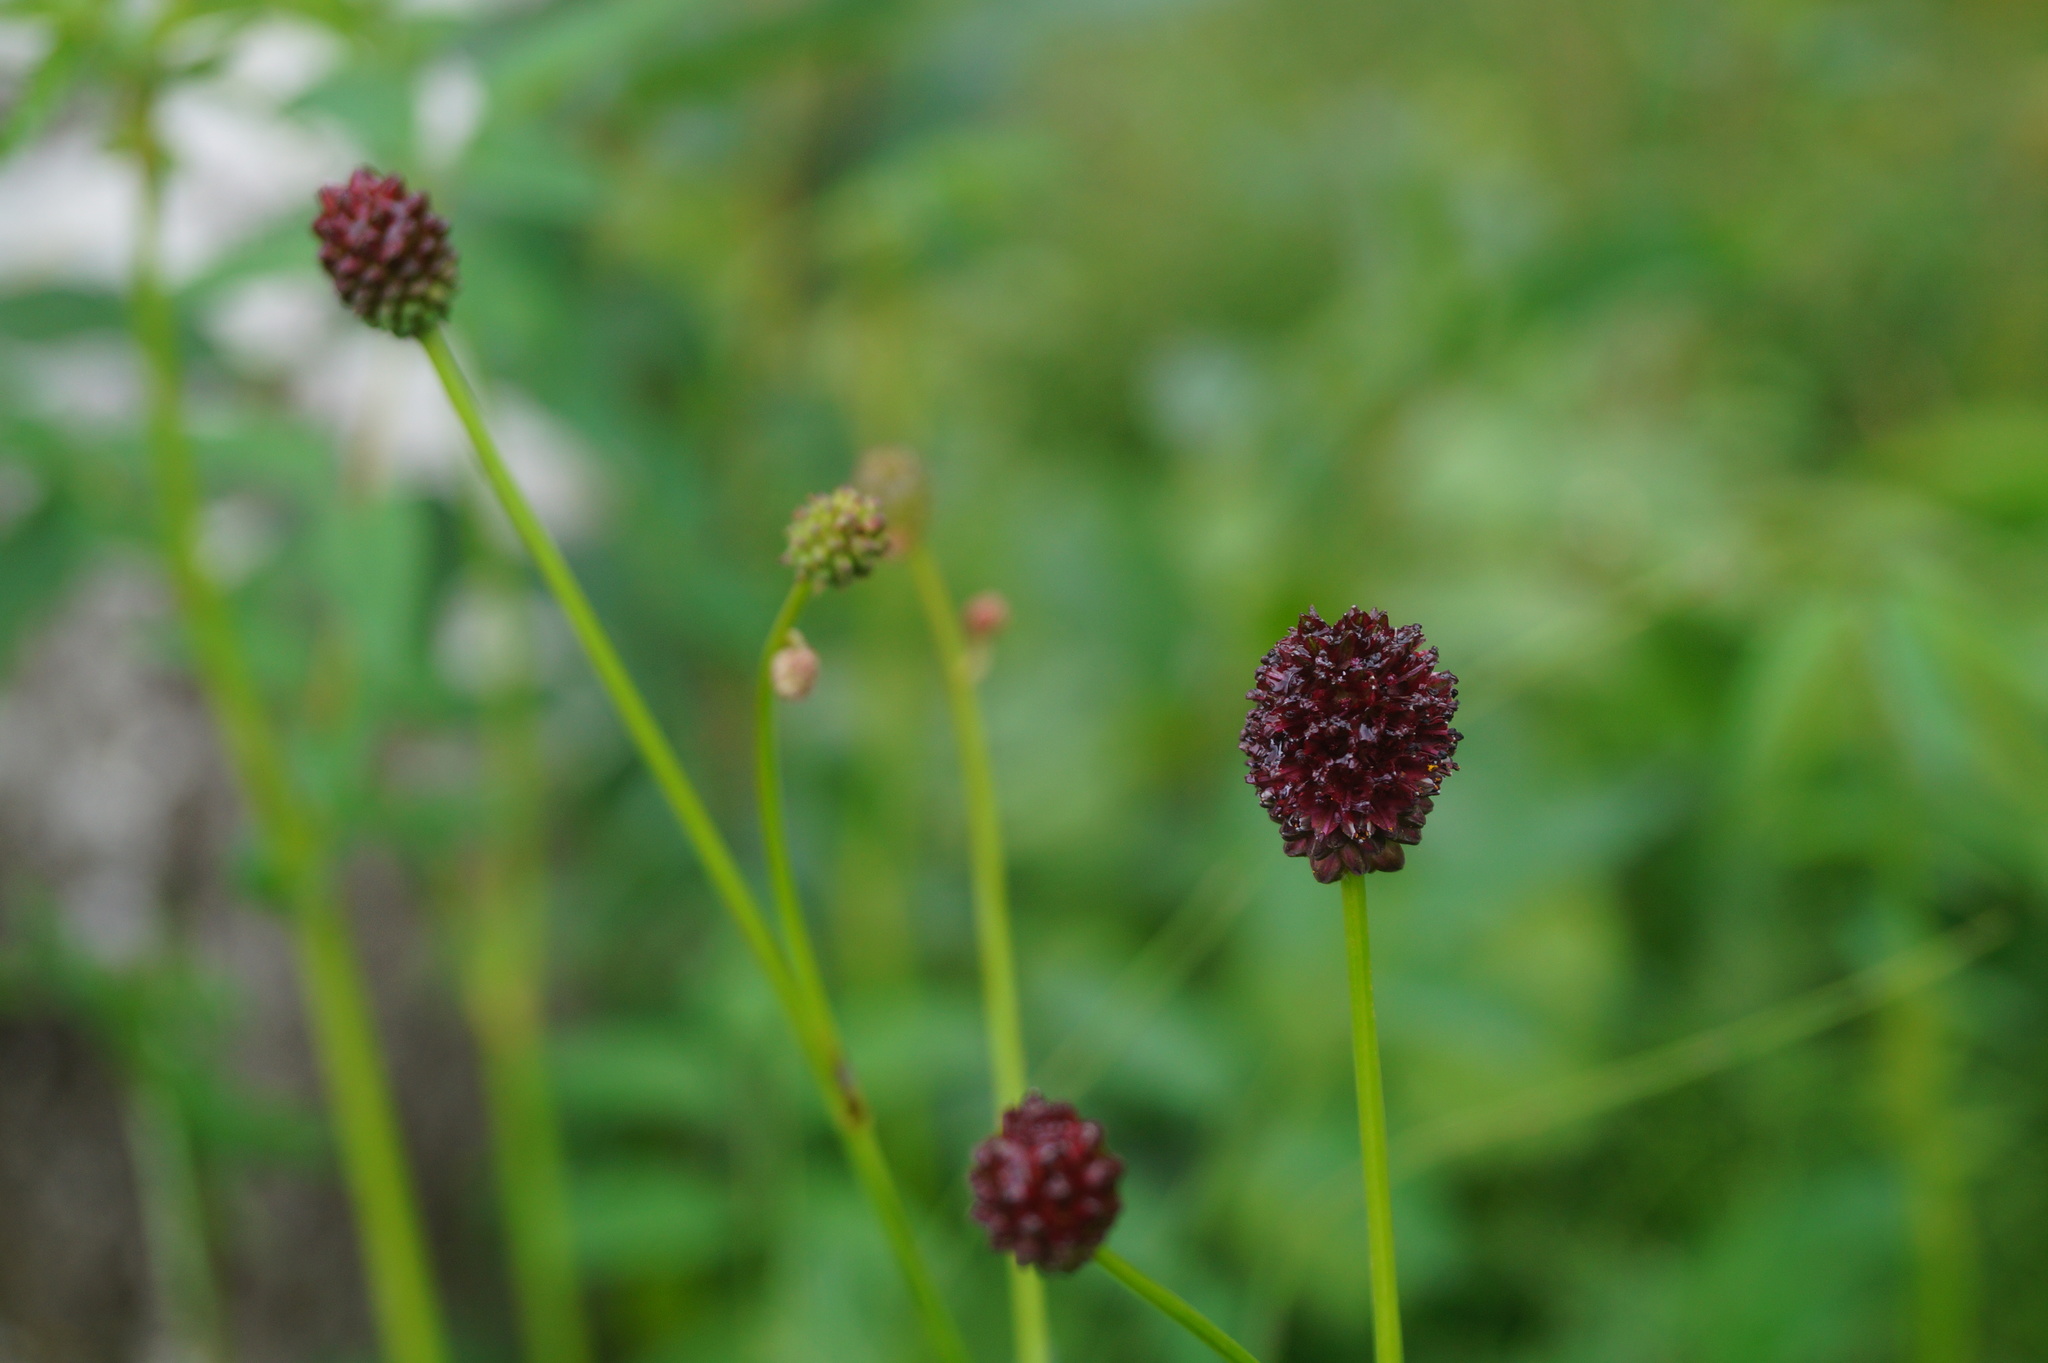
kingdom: Plantae
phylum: Tracheophyta
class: Magnoliopsida
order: Rosales
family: Rosaceae
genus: Sanguisorba
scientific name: Sanguisorba officinalis
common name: Great burnet
